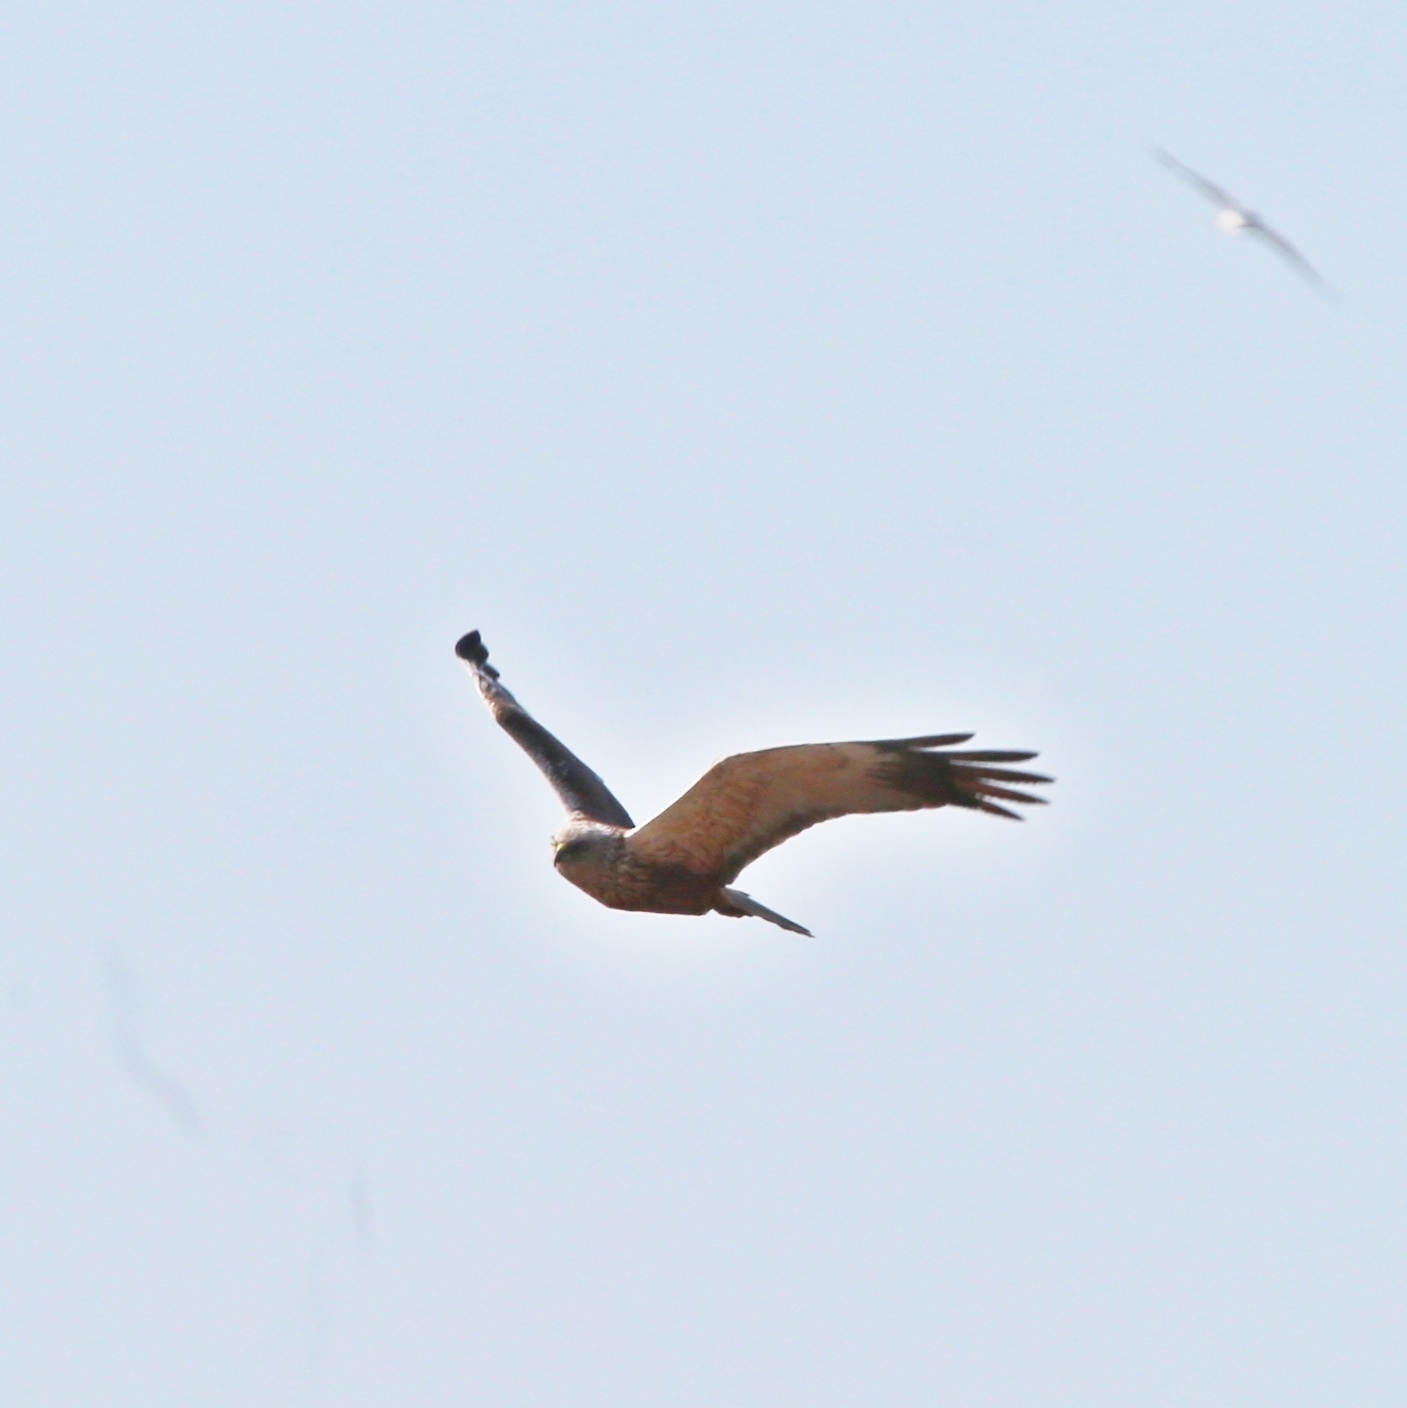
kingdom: Animalia
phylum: Chordata
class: Aves
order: Accipitriformes
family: Accipitridae
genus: Circus
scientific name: Circus aeruginosus
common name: Western marsh harrier
